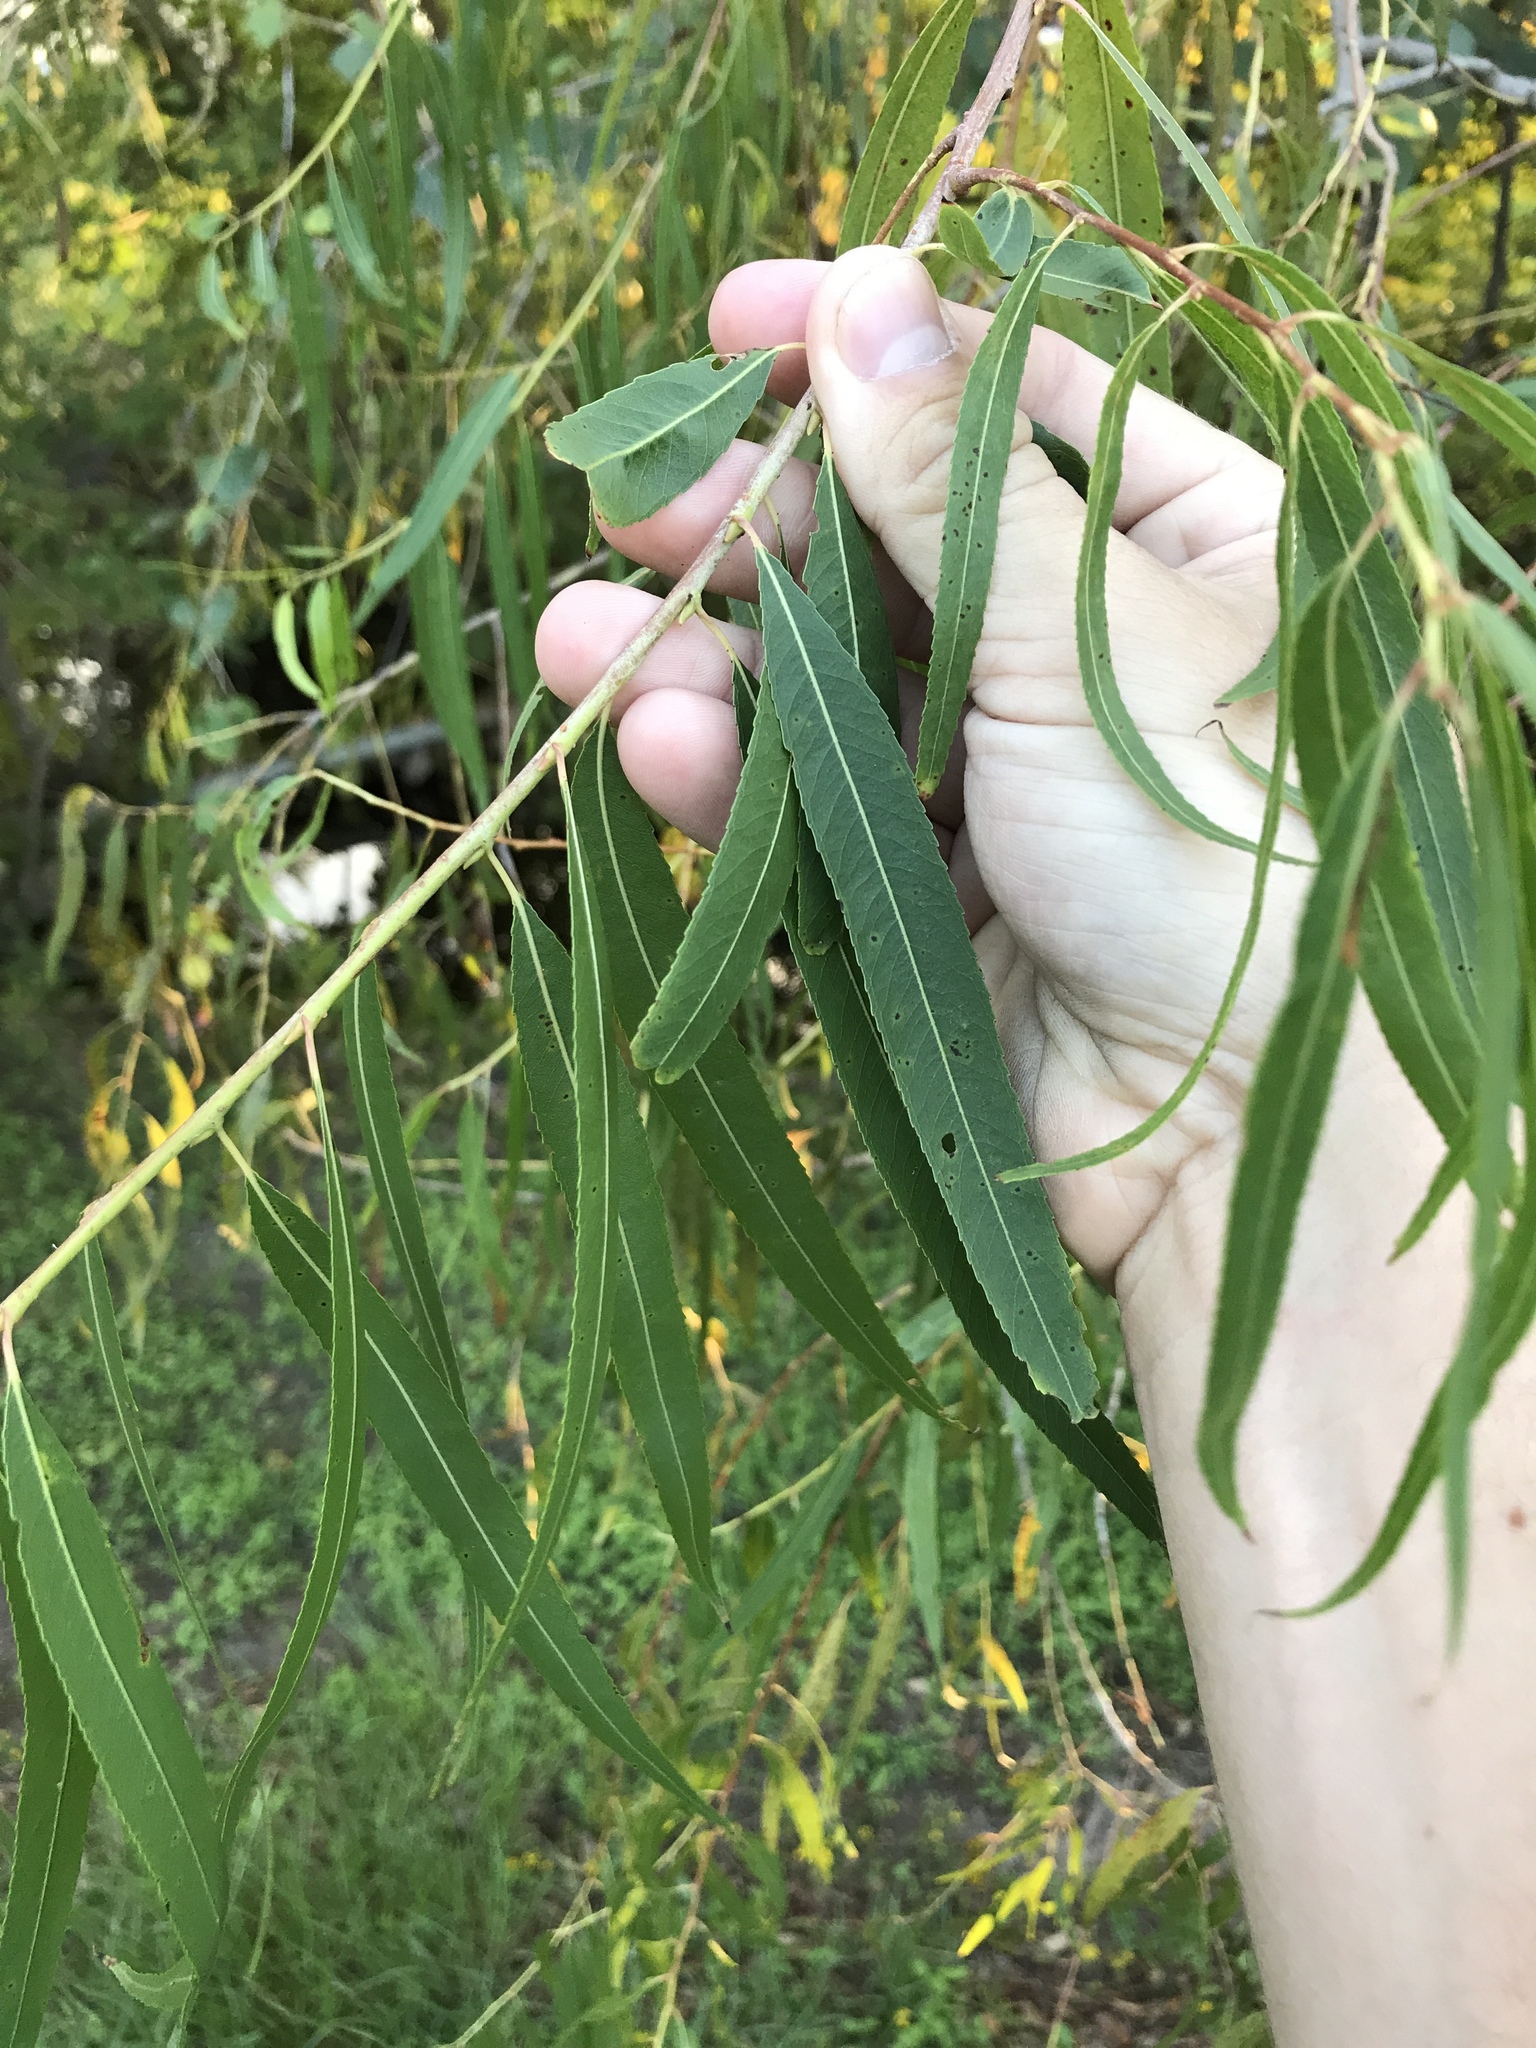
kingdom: Plantae
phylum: Tracheophyta
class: Magnoliopsida
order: Malpighiales
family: Salicaceae
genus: Salix
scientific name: Salix nigra
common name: Black willow
